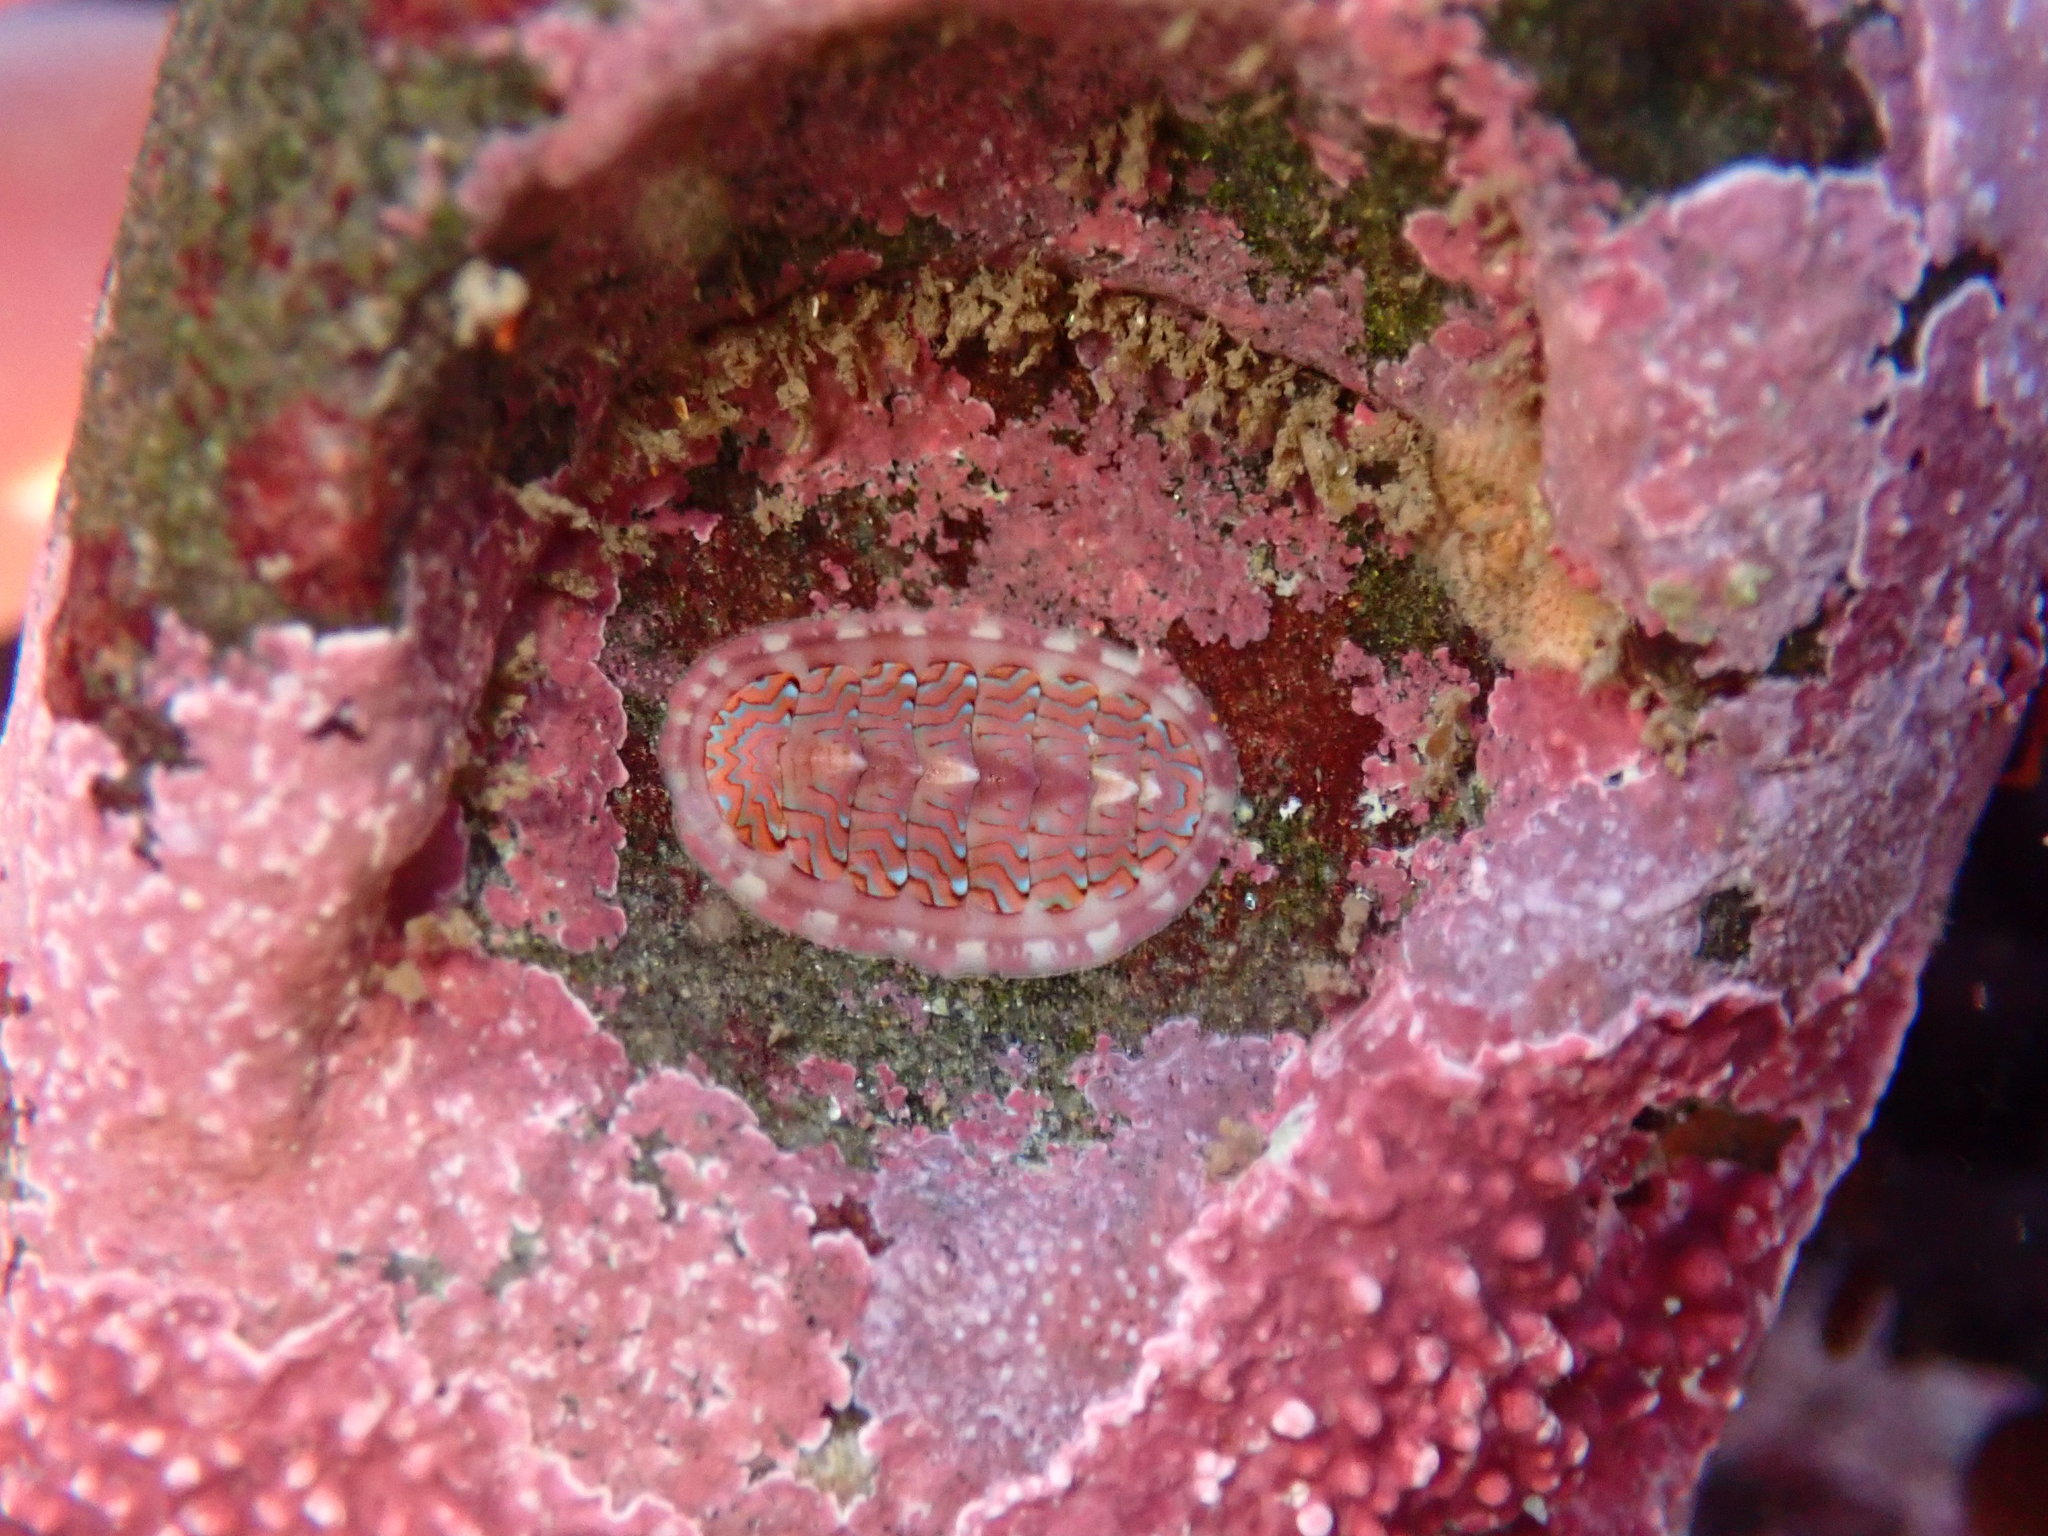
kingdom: Animalia
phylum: Mollusca
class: Polyplacophora
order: Chitonida
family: Tonicellidae
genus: Tonicella
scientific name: Tonicella lokii
